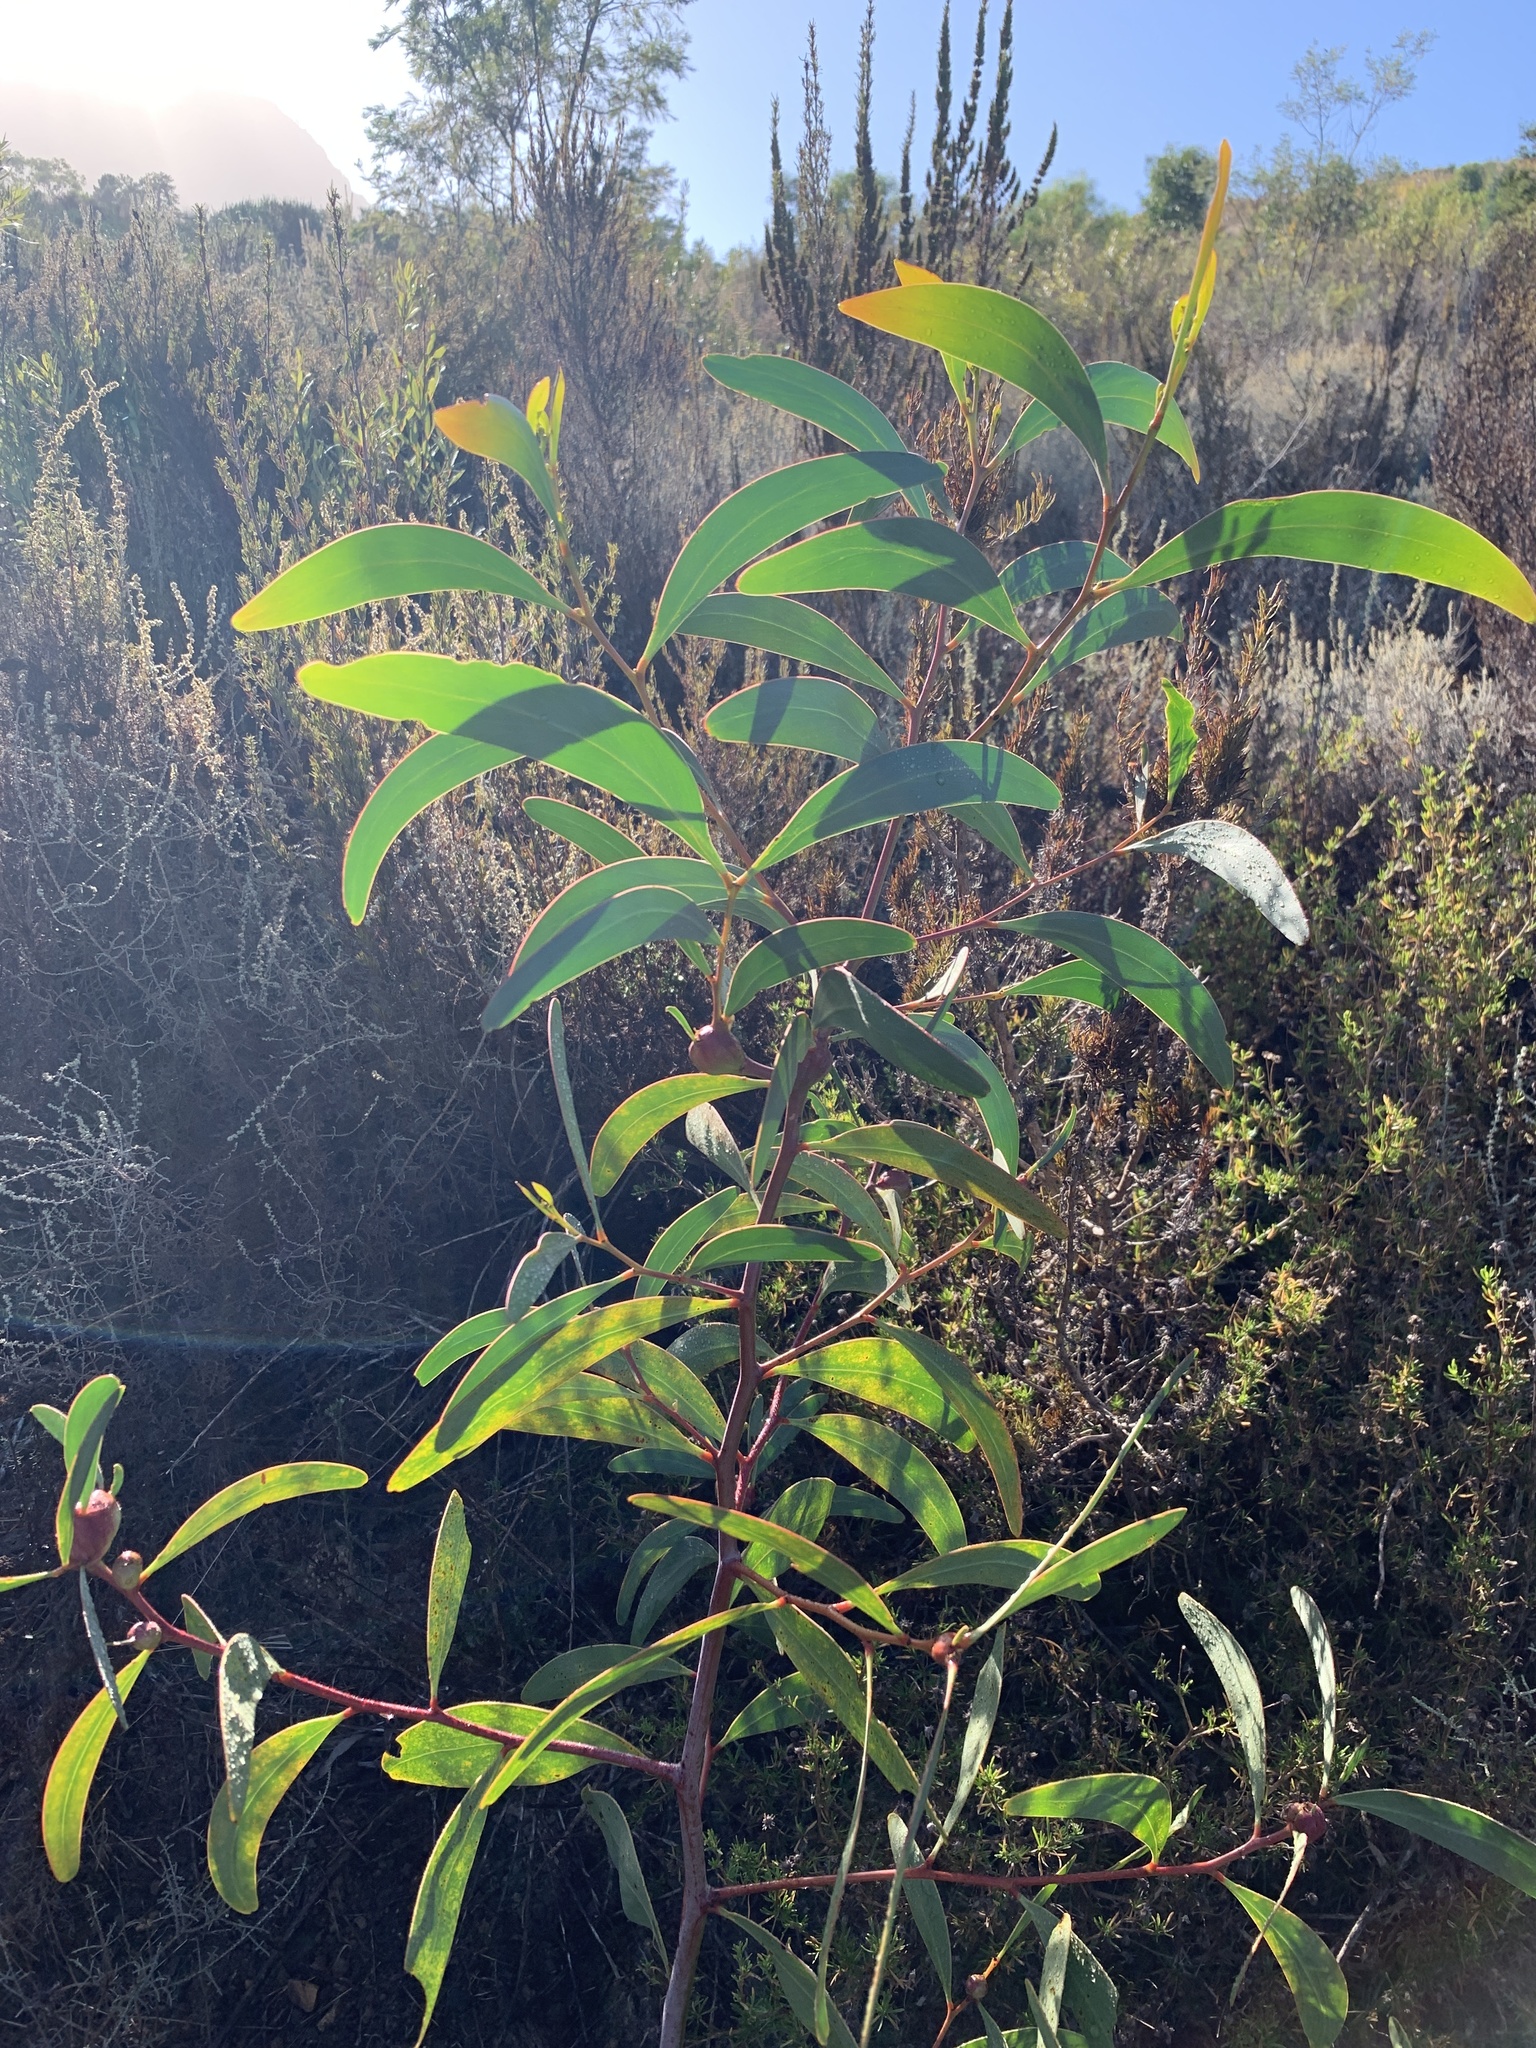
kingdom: Plantae
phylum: Tracheophyta
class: Magnoliopsida
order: Fabales
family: Fabaceae
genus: Acacia
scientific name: Acacia pycnantha
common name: Golden wattle
